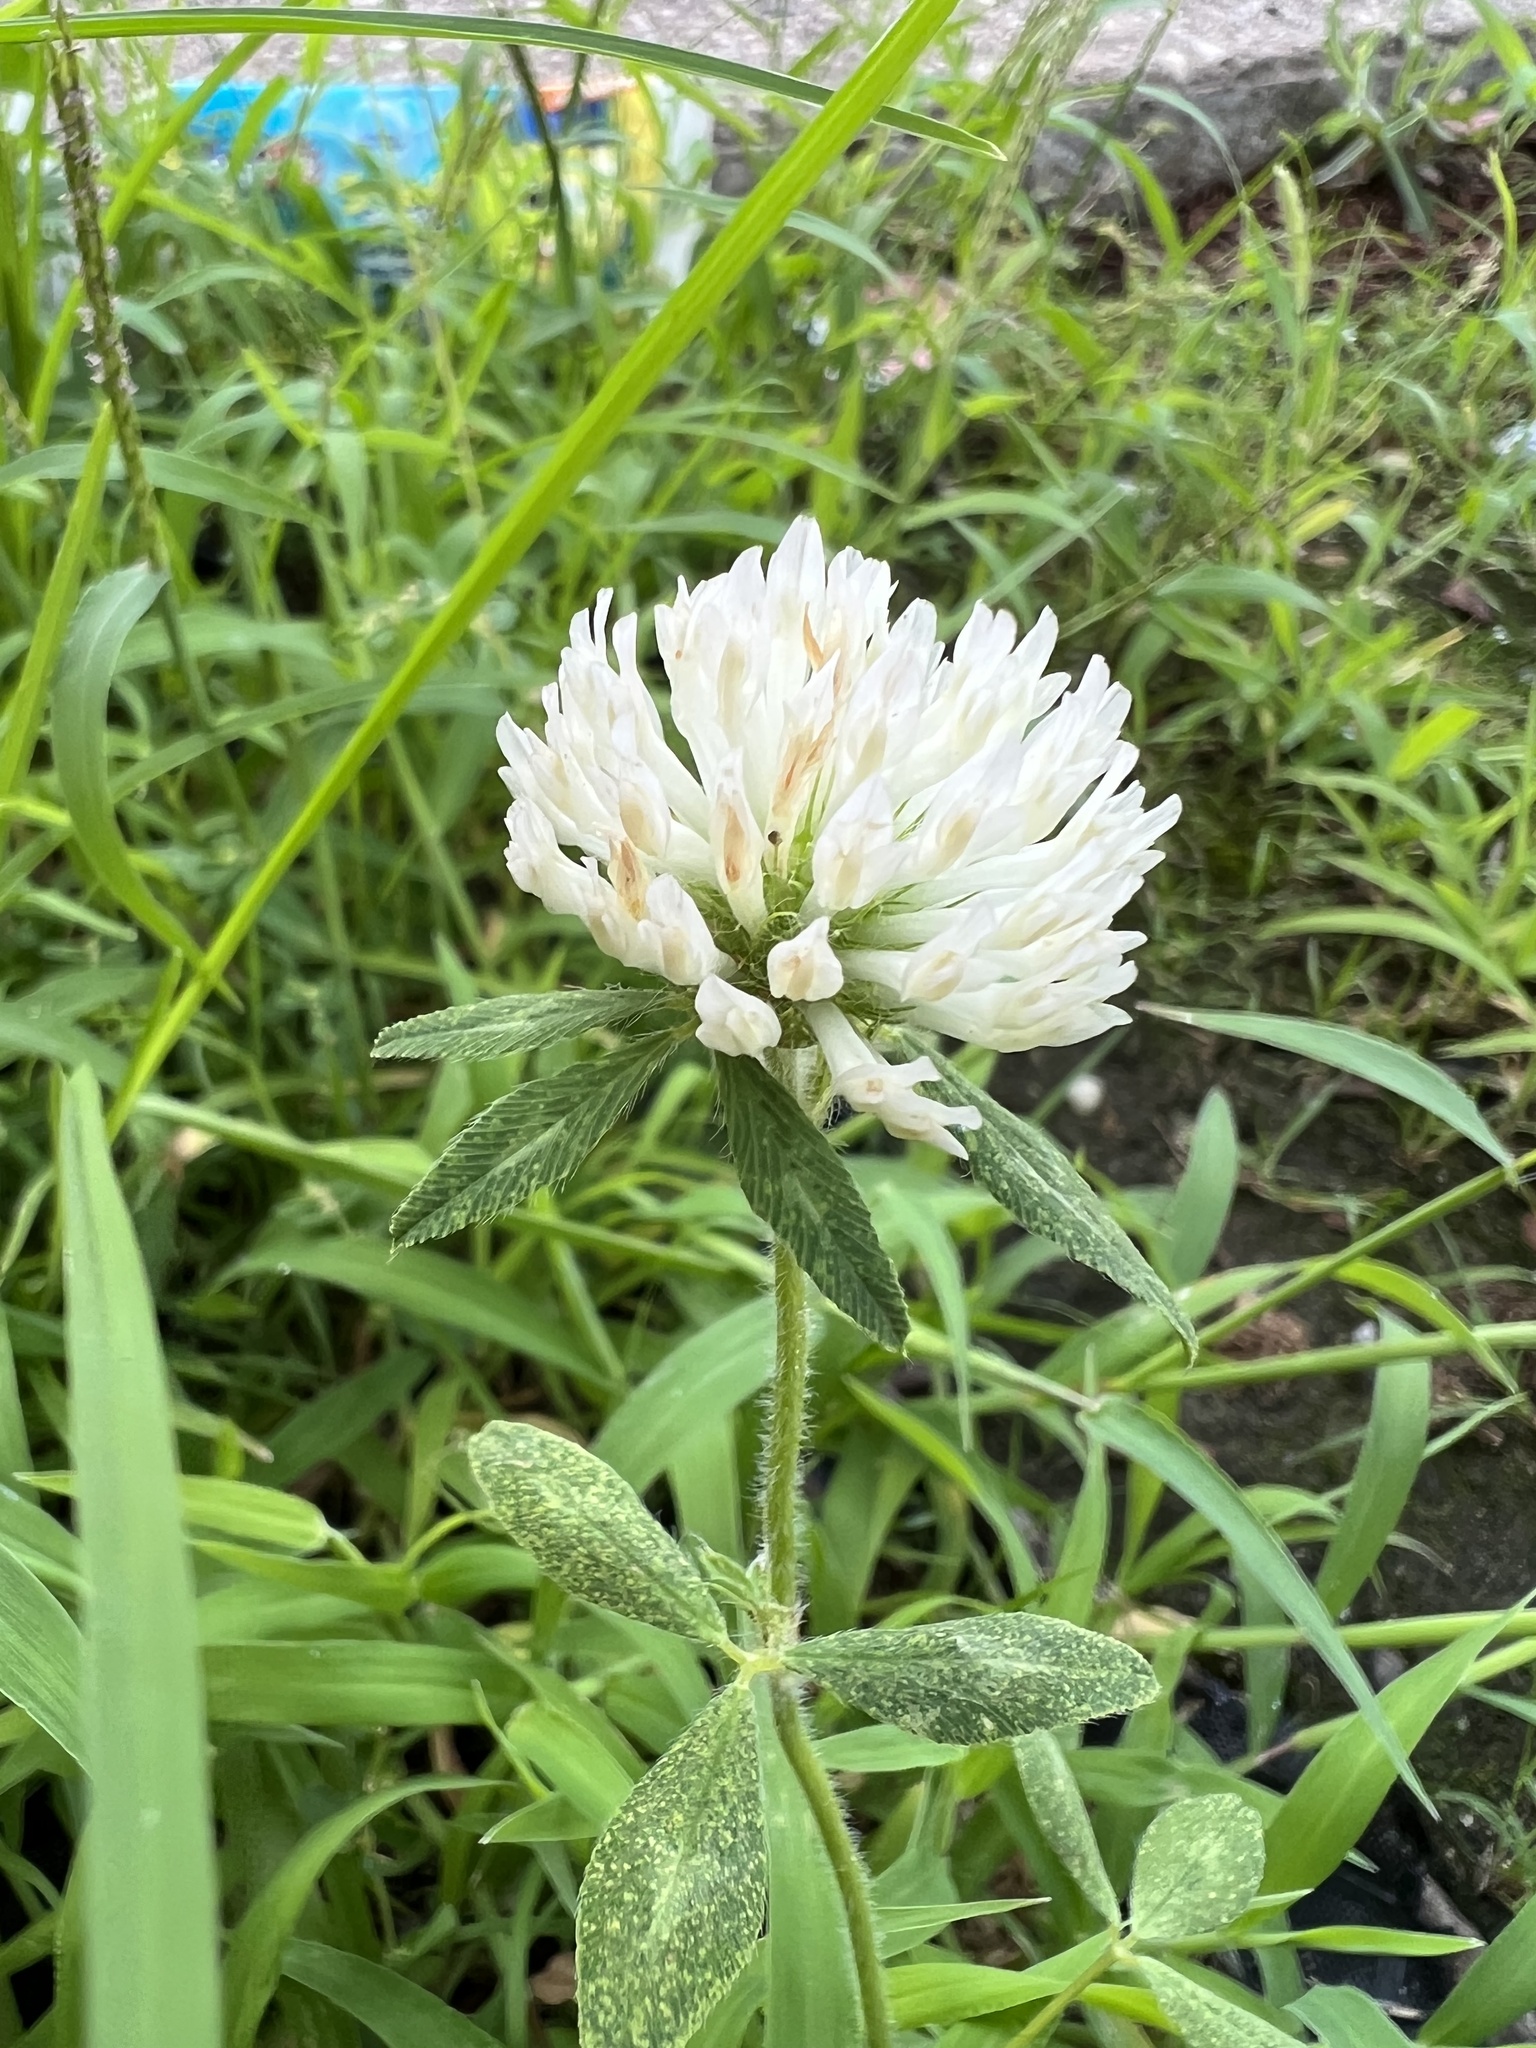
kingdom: Plantae
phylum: Tracheophyta
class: Magnoliopsida
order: Fabales
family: Fabaceae
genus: Trifolium
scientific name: Trifolium pratense
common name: Red clover
